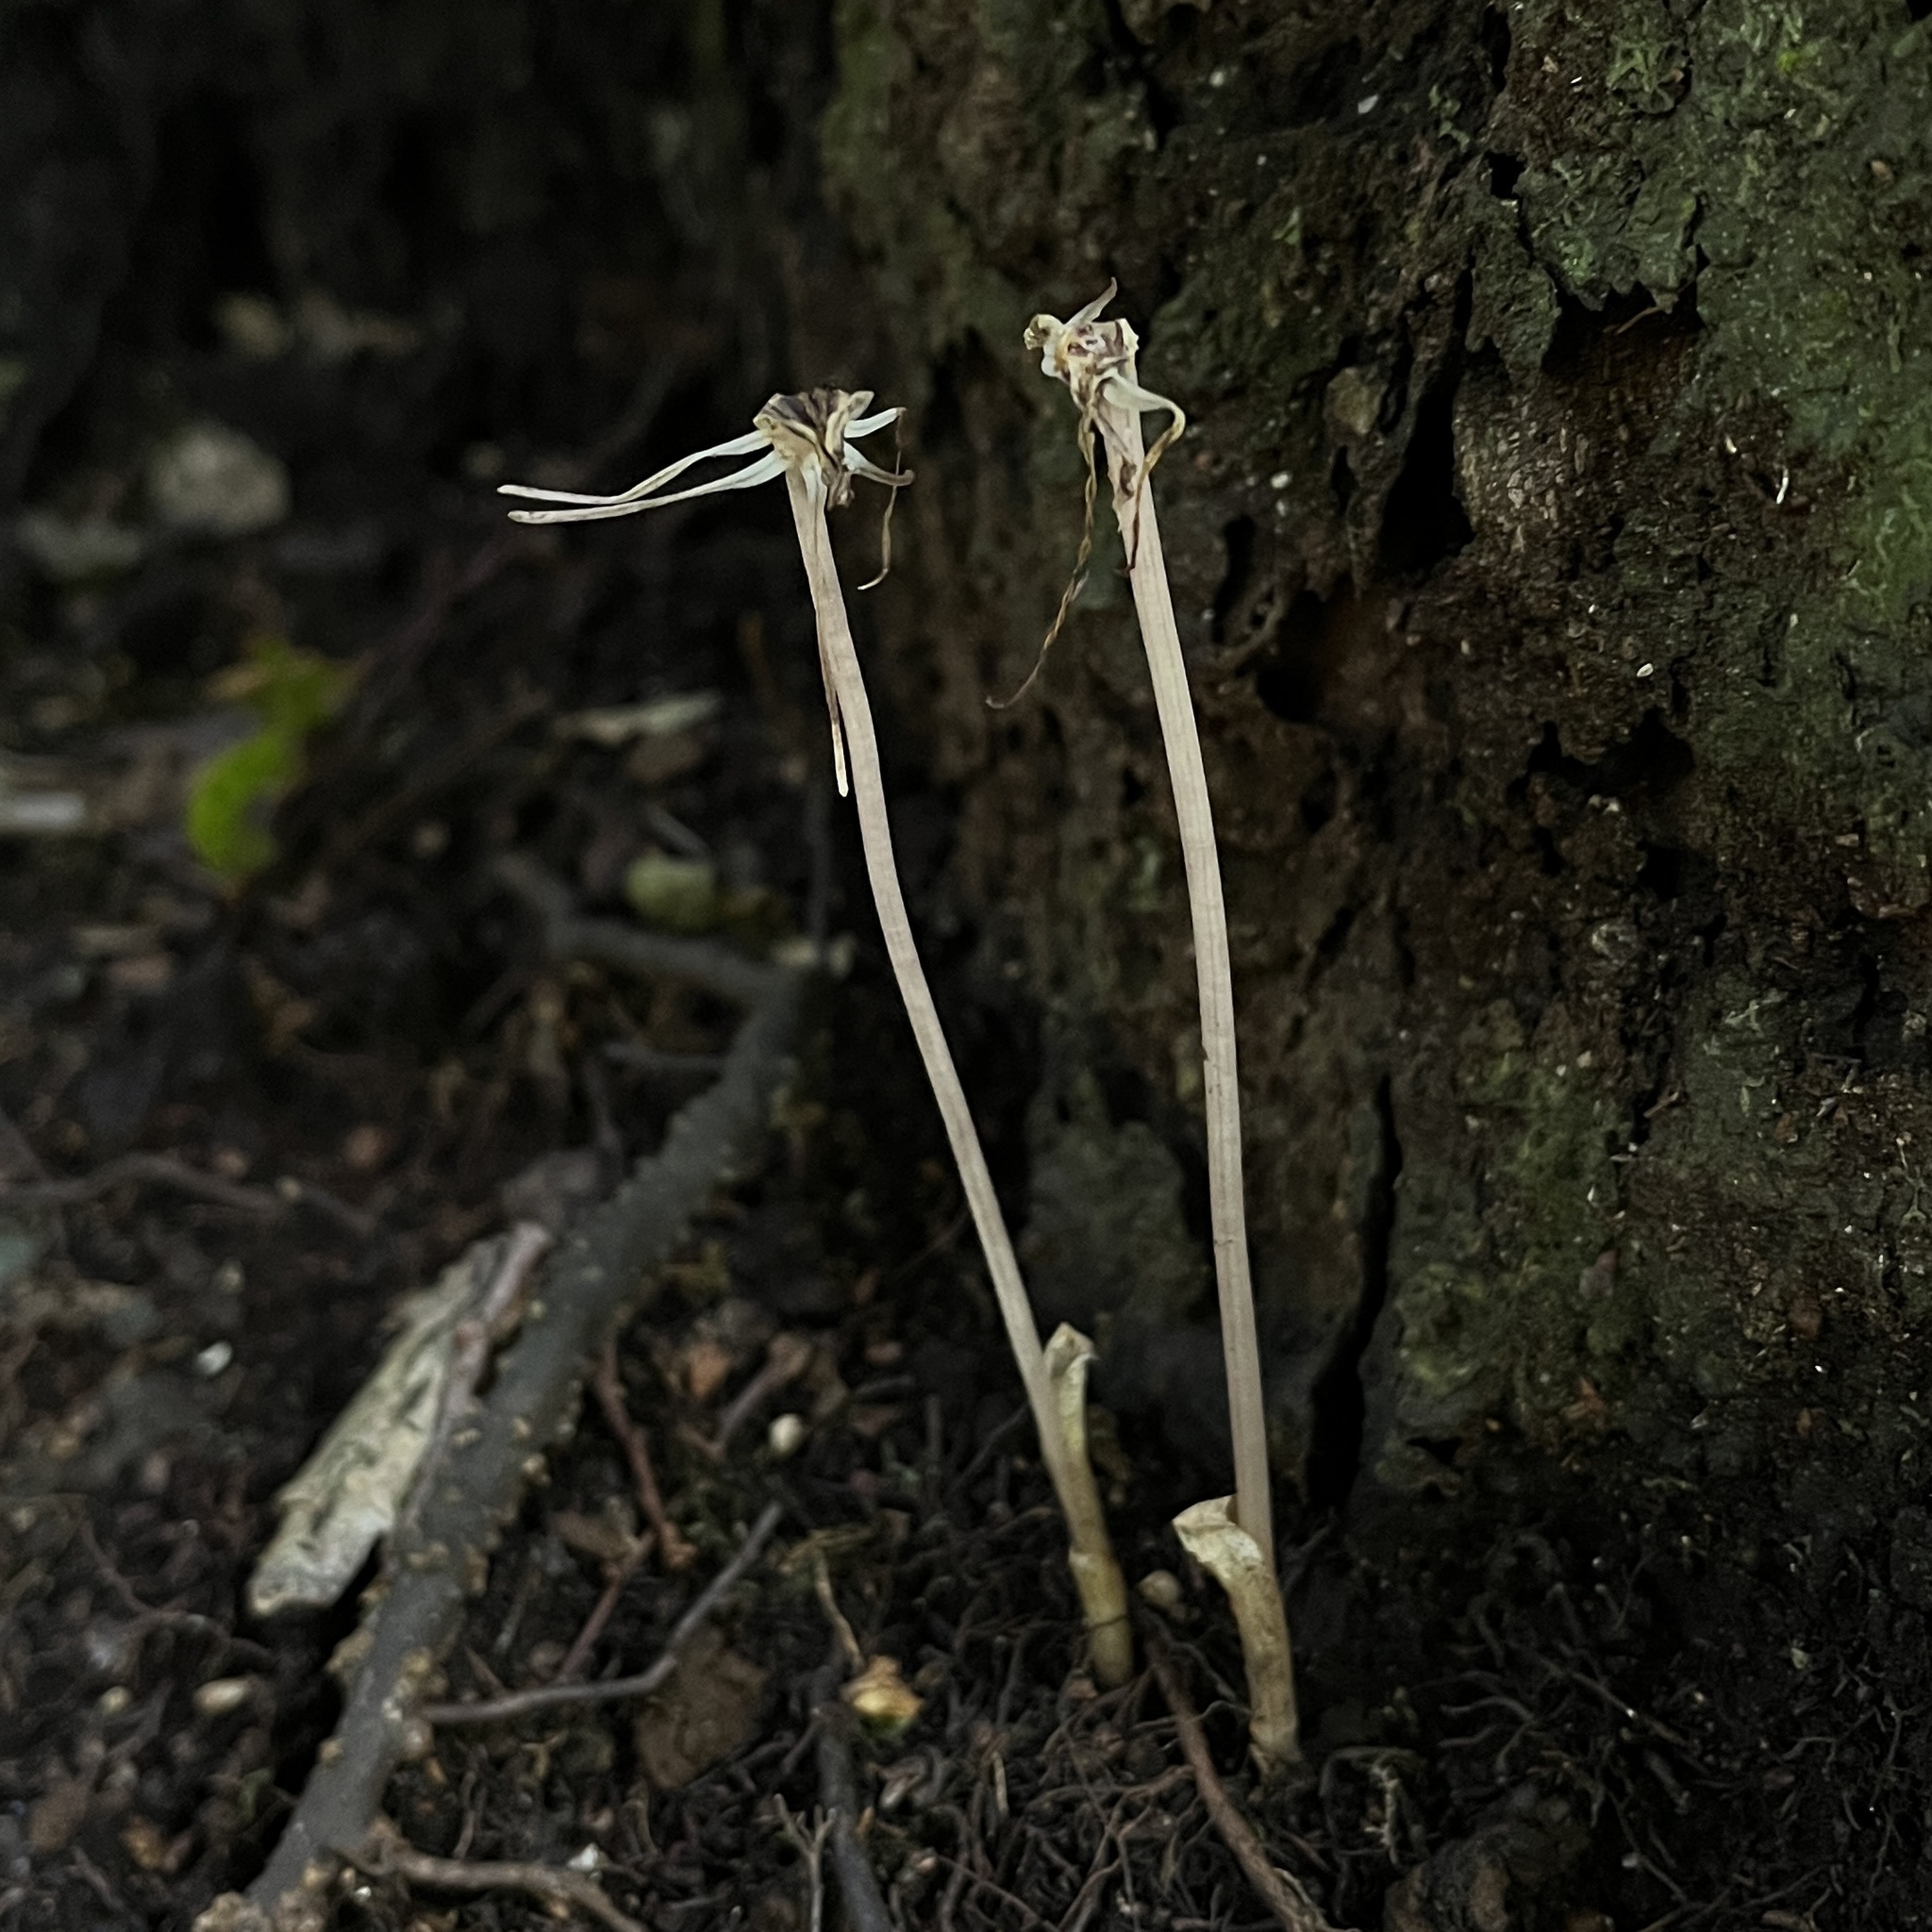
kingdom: Plantae
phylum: Tracheophyta
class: Liliopsida
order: Liliales
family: Corsiaceae
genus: Arachnitis
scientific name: Arachnitis uniflora
